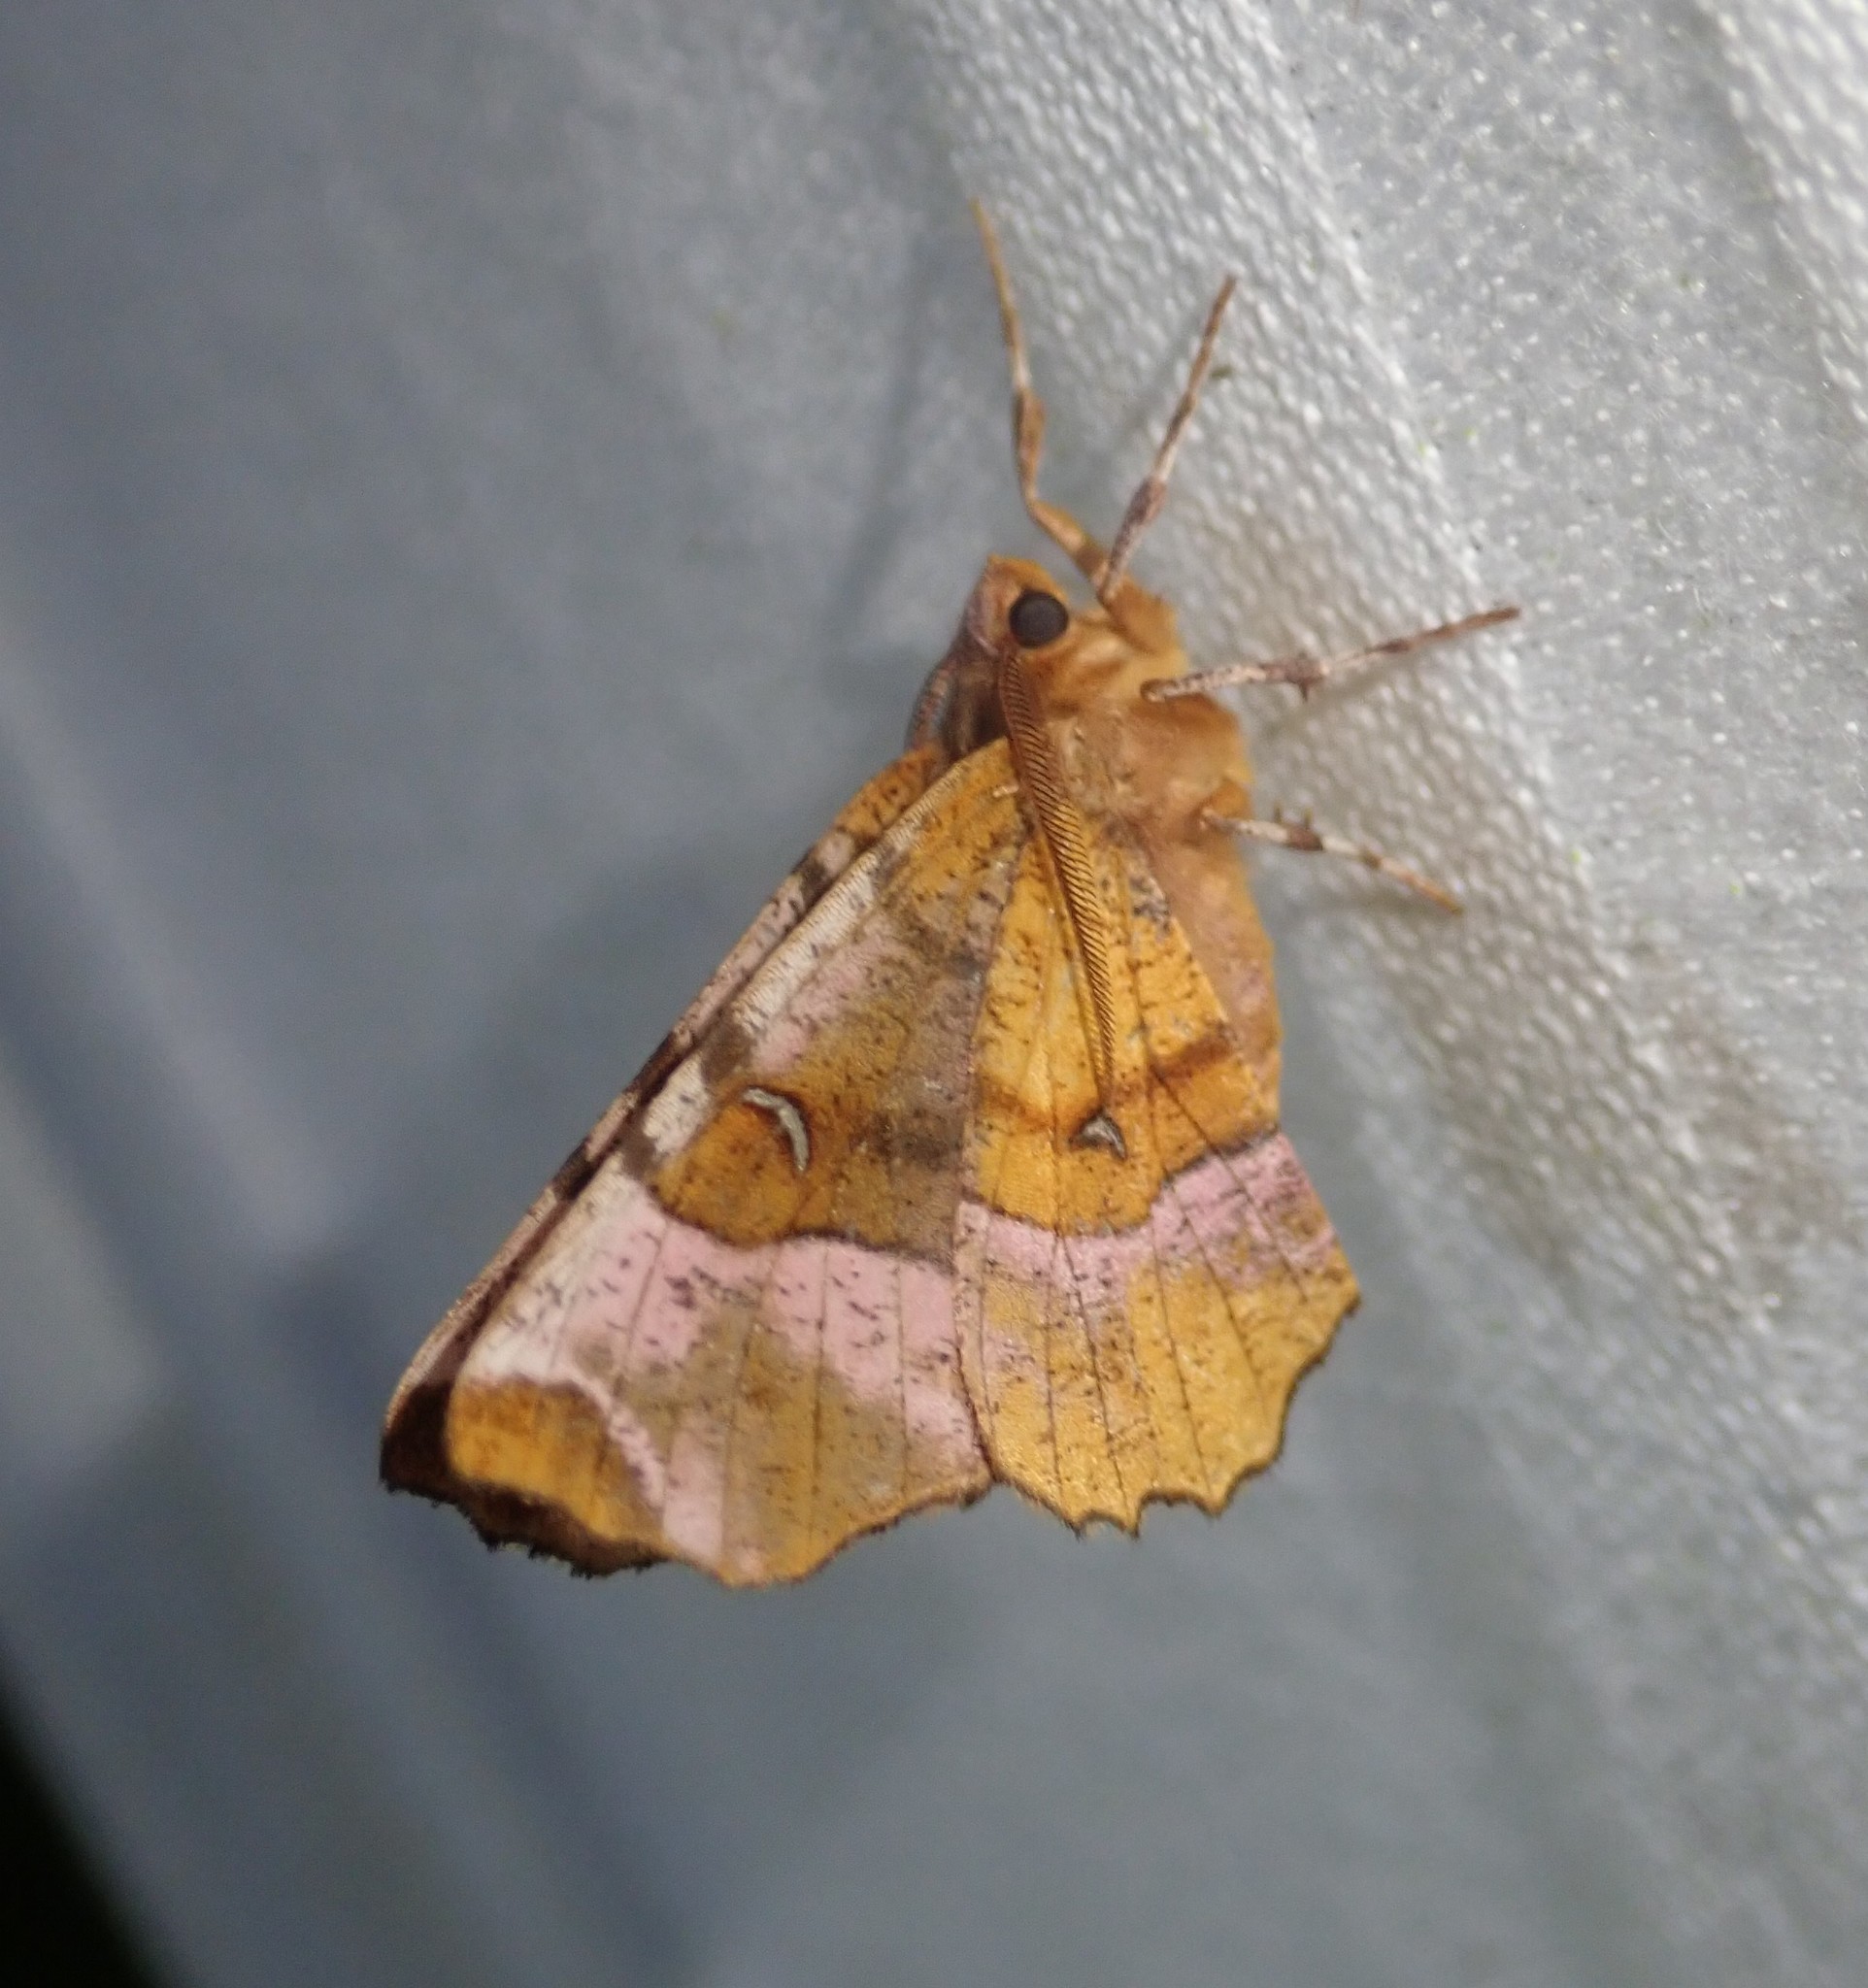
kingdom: Animalia
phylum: Arthropoda
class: Insecta
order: Lepidoptera
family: Geometridae
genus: Selenia
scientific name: Selenia tetralunaria
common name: Purple thorn
